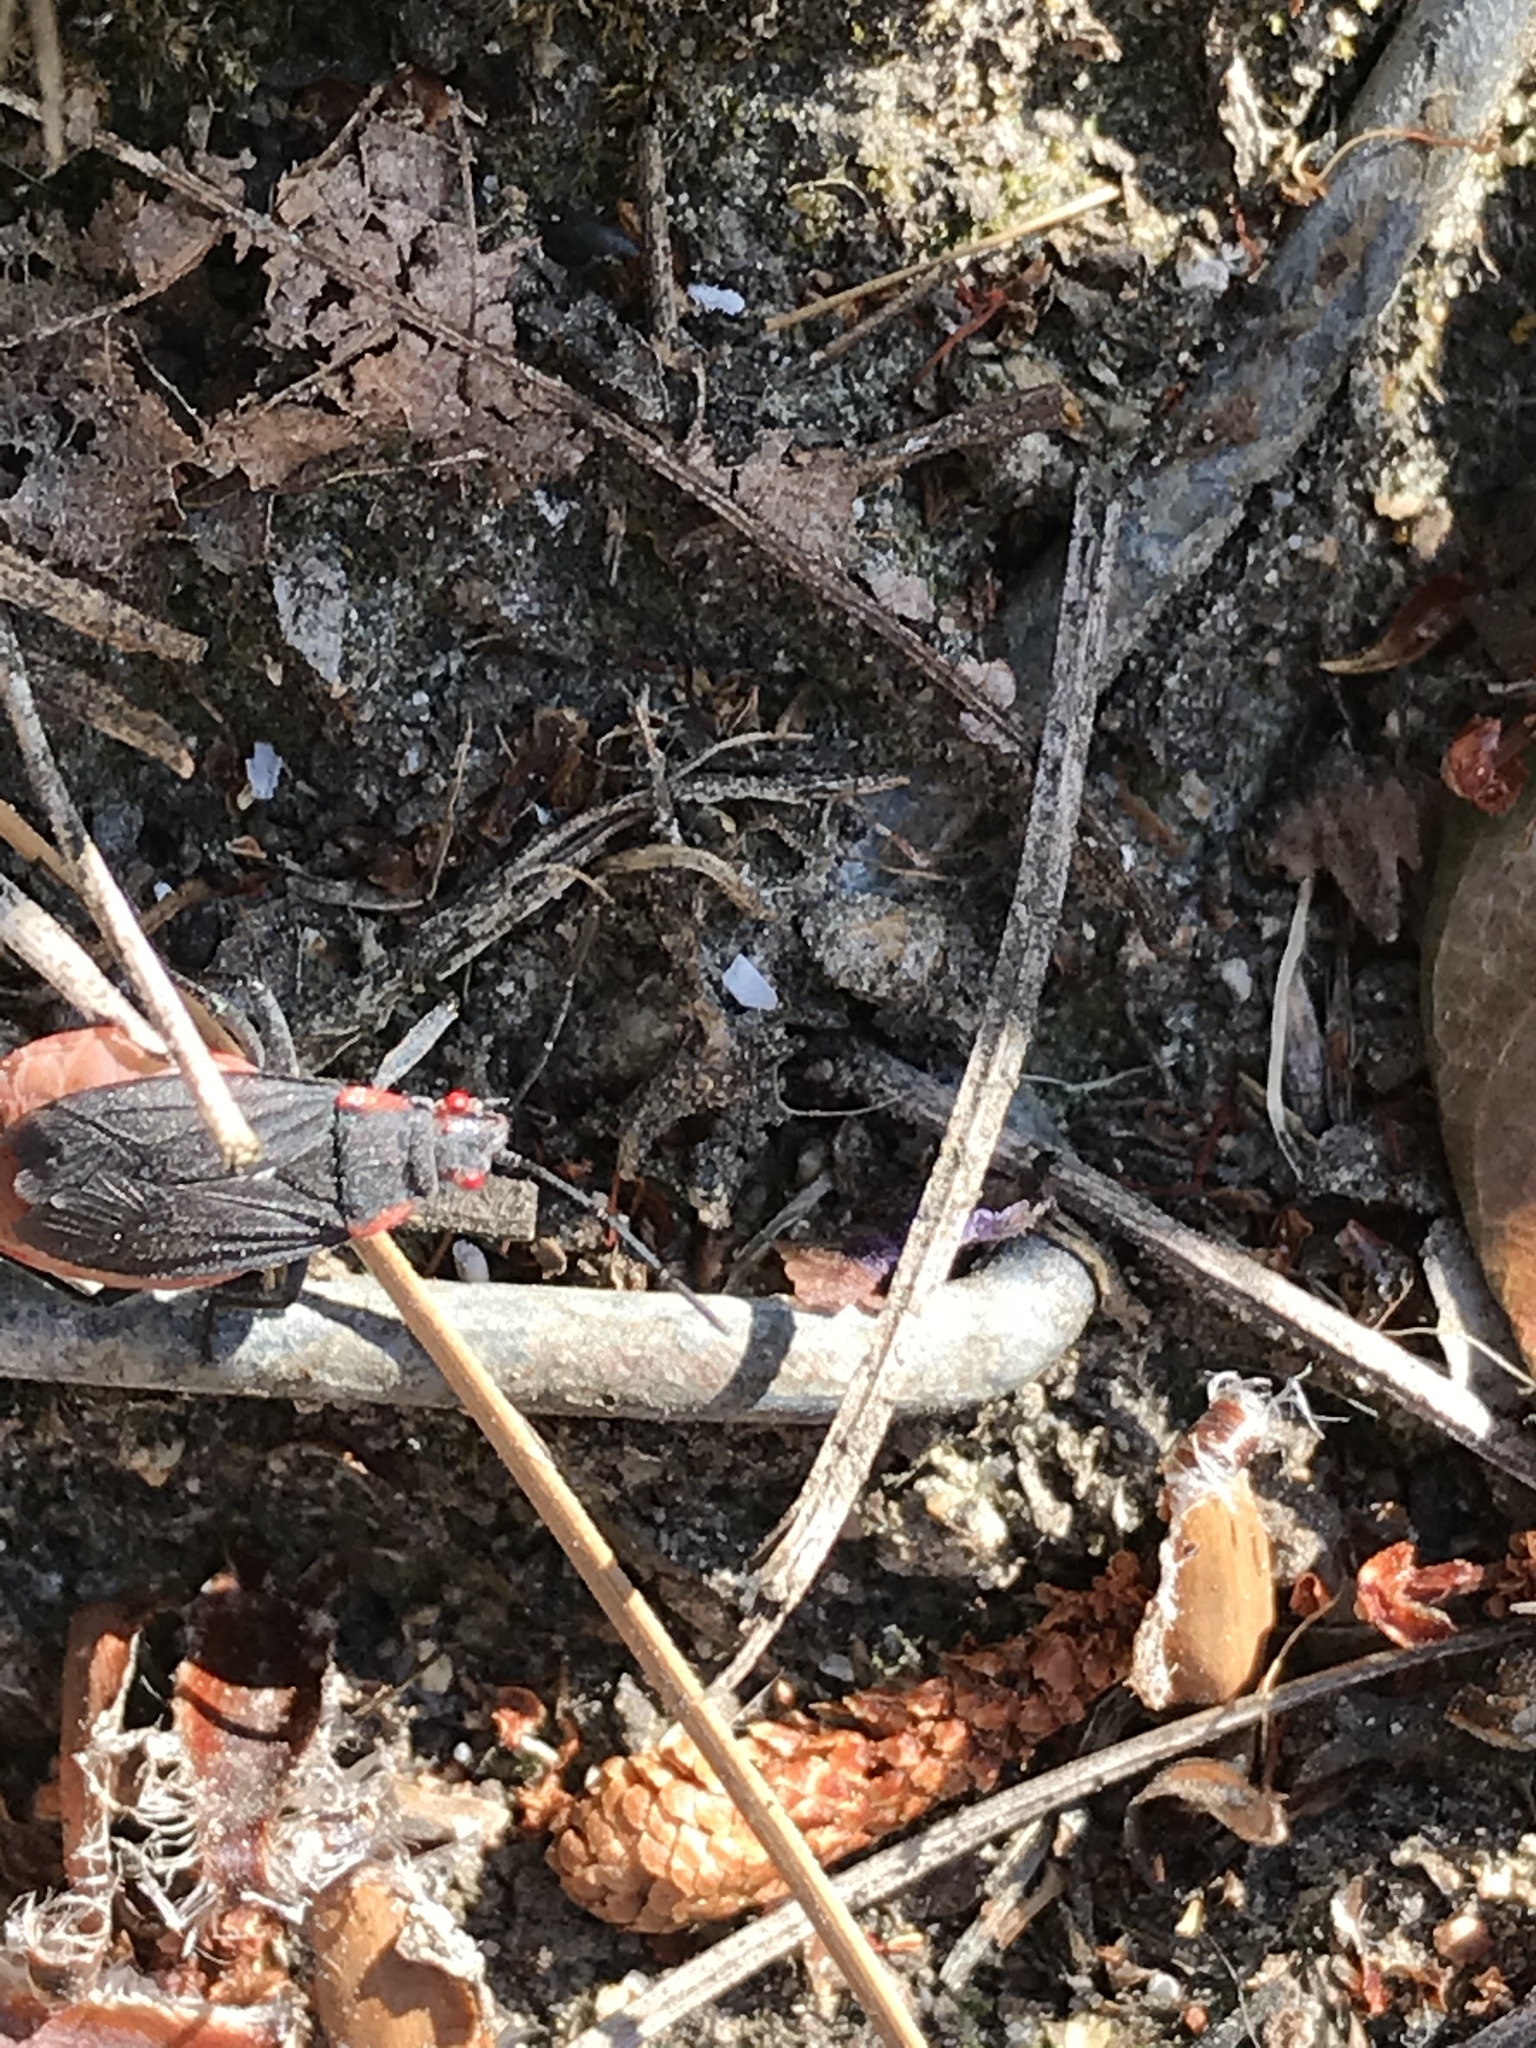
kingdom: Animalia
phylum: Arthropoda
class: Insecta
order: Hemiptera
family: Rhopalidae
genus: Jadera
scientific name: Jadera haematoloma
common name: Red-shouldered bug
